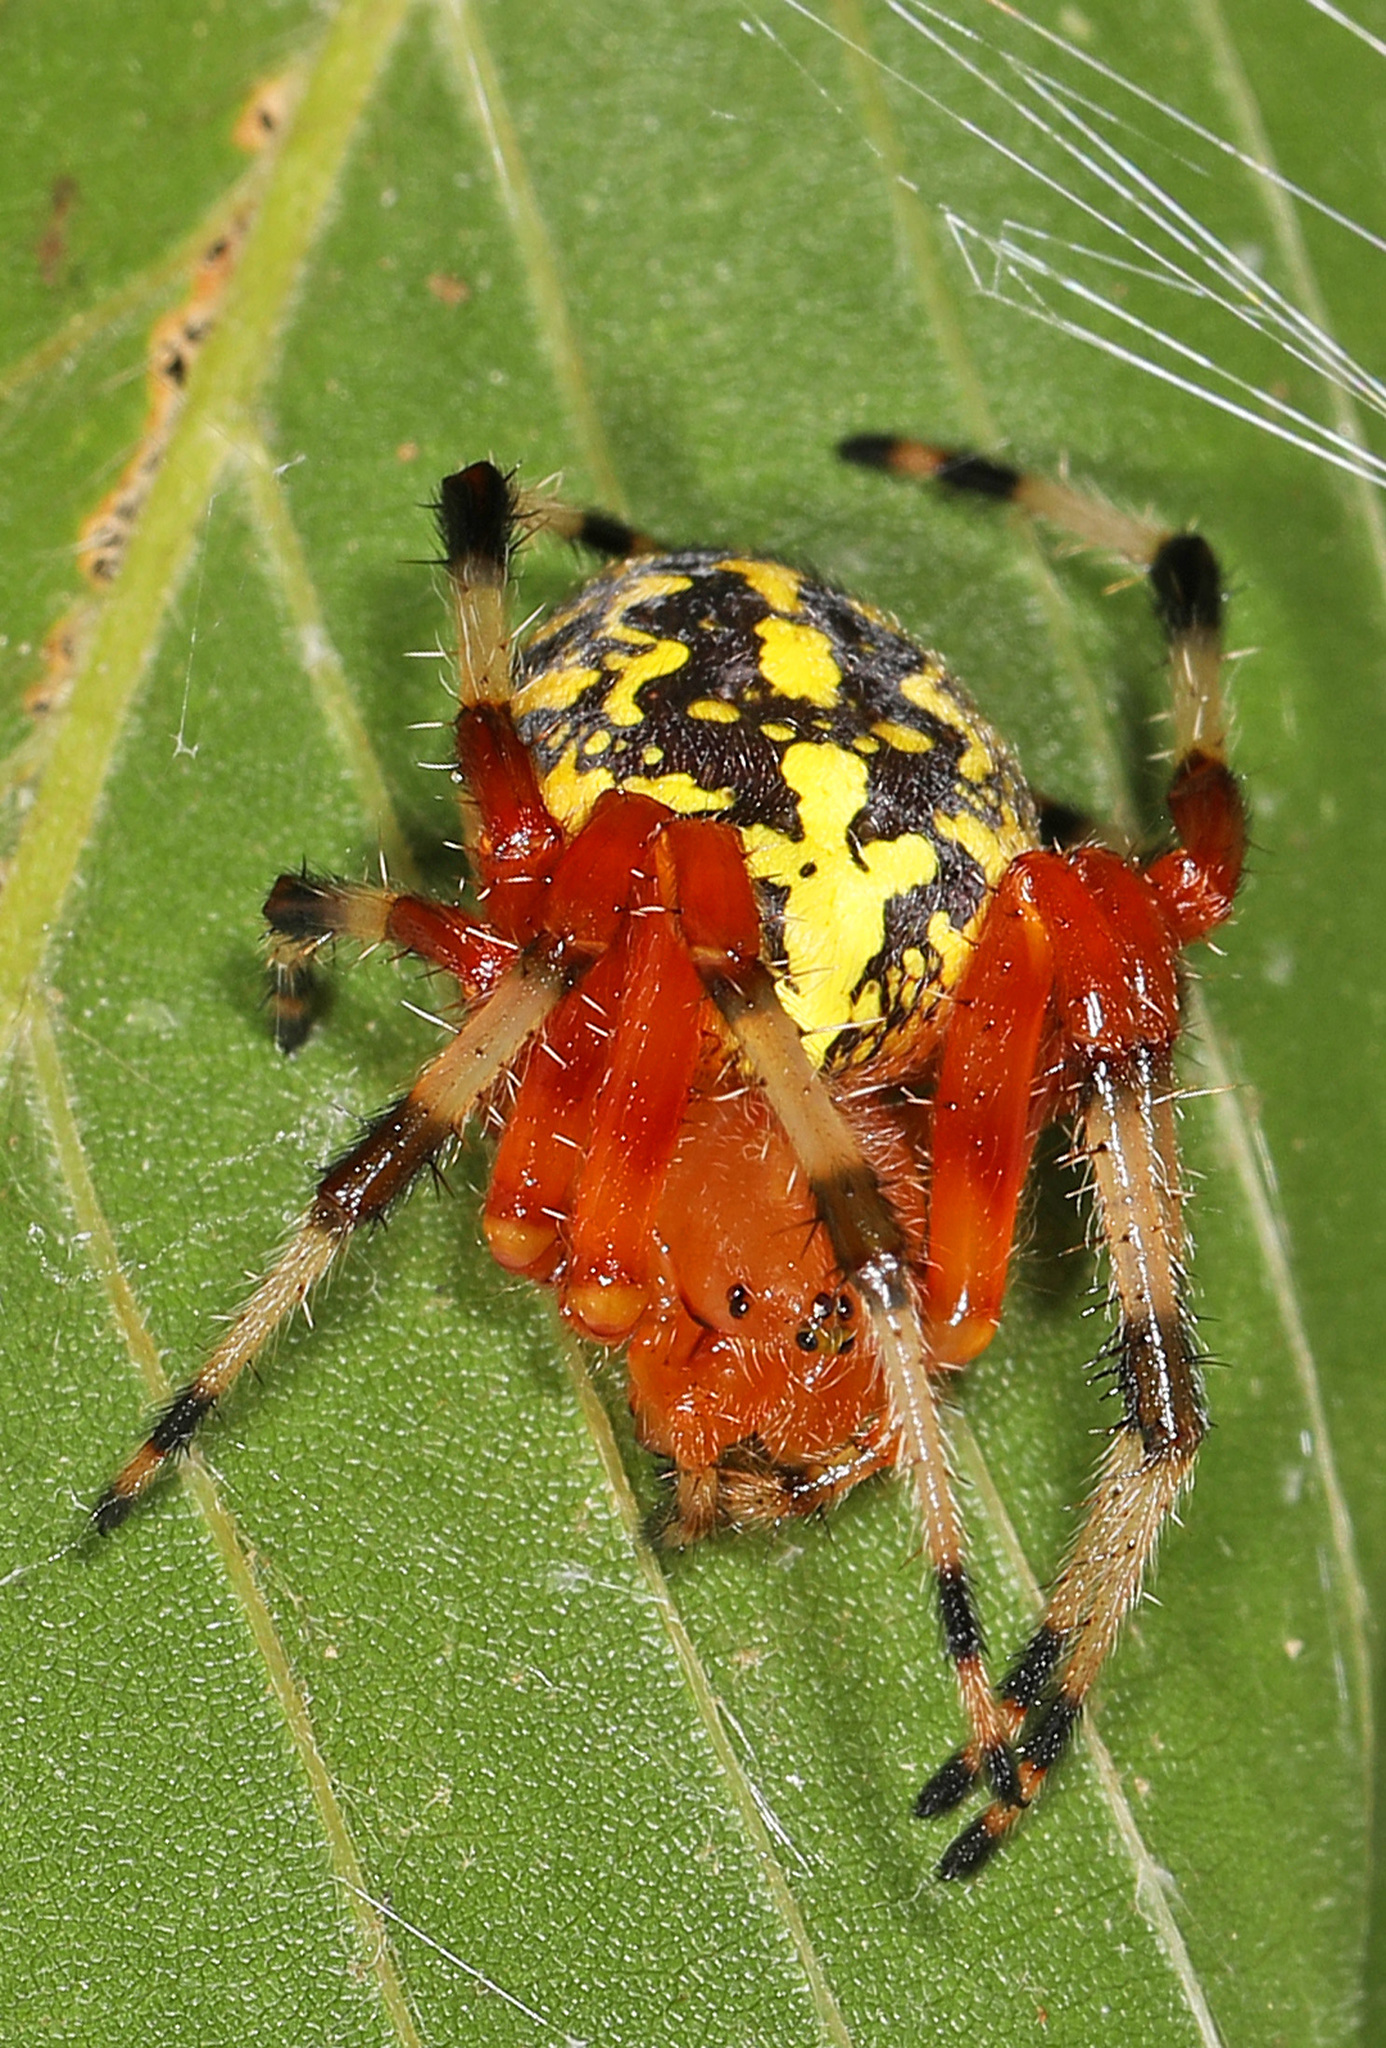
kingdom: Animalia
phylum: Arthropoda
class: Arachnida
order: Araneae
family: Araneidae
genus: Araneus
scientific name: Araneus marmoreus
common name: Marbled orbweaver
